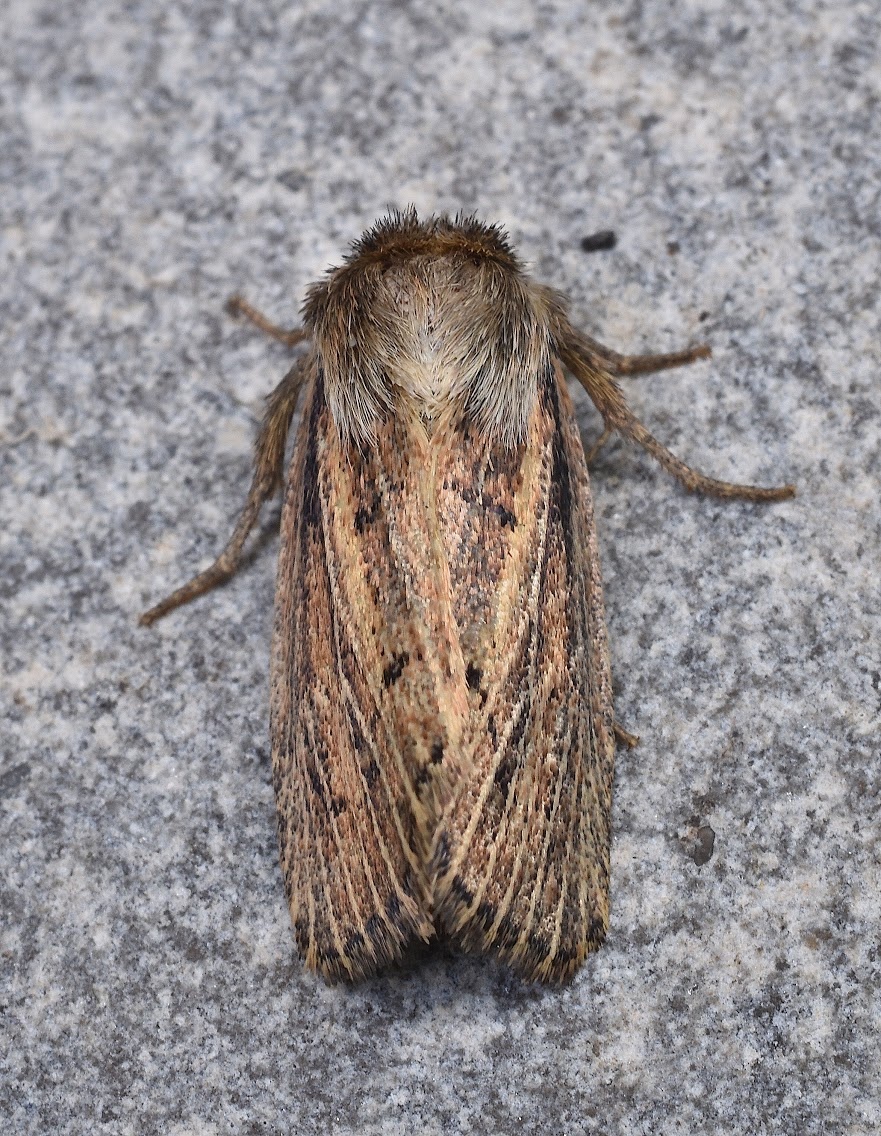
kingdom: Animalia
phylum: Arthropoda
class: Insecta
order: Lepidoptera
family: Noctuidae
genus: Hypocoena
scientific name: Hypocoena inquinata
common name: Tufted sedge moth
